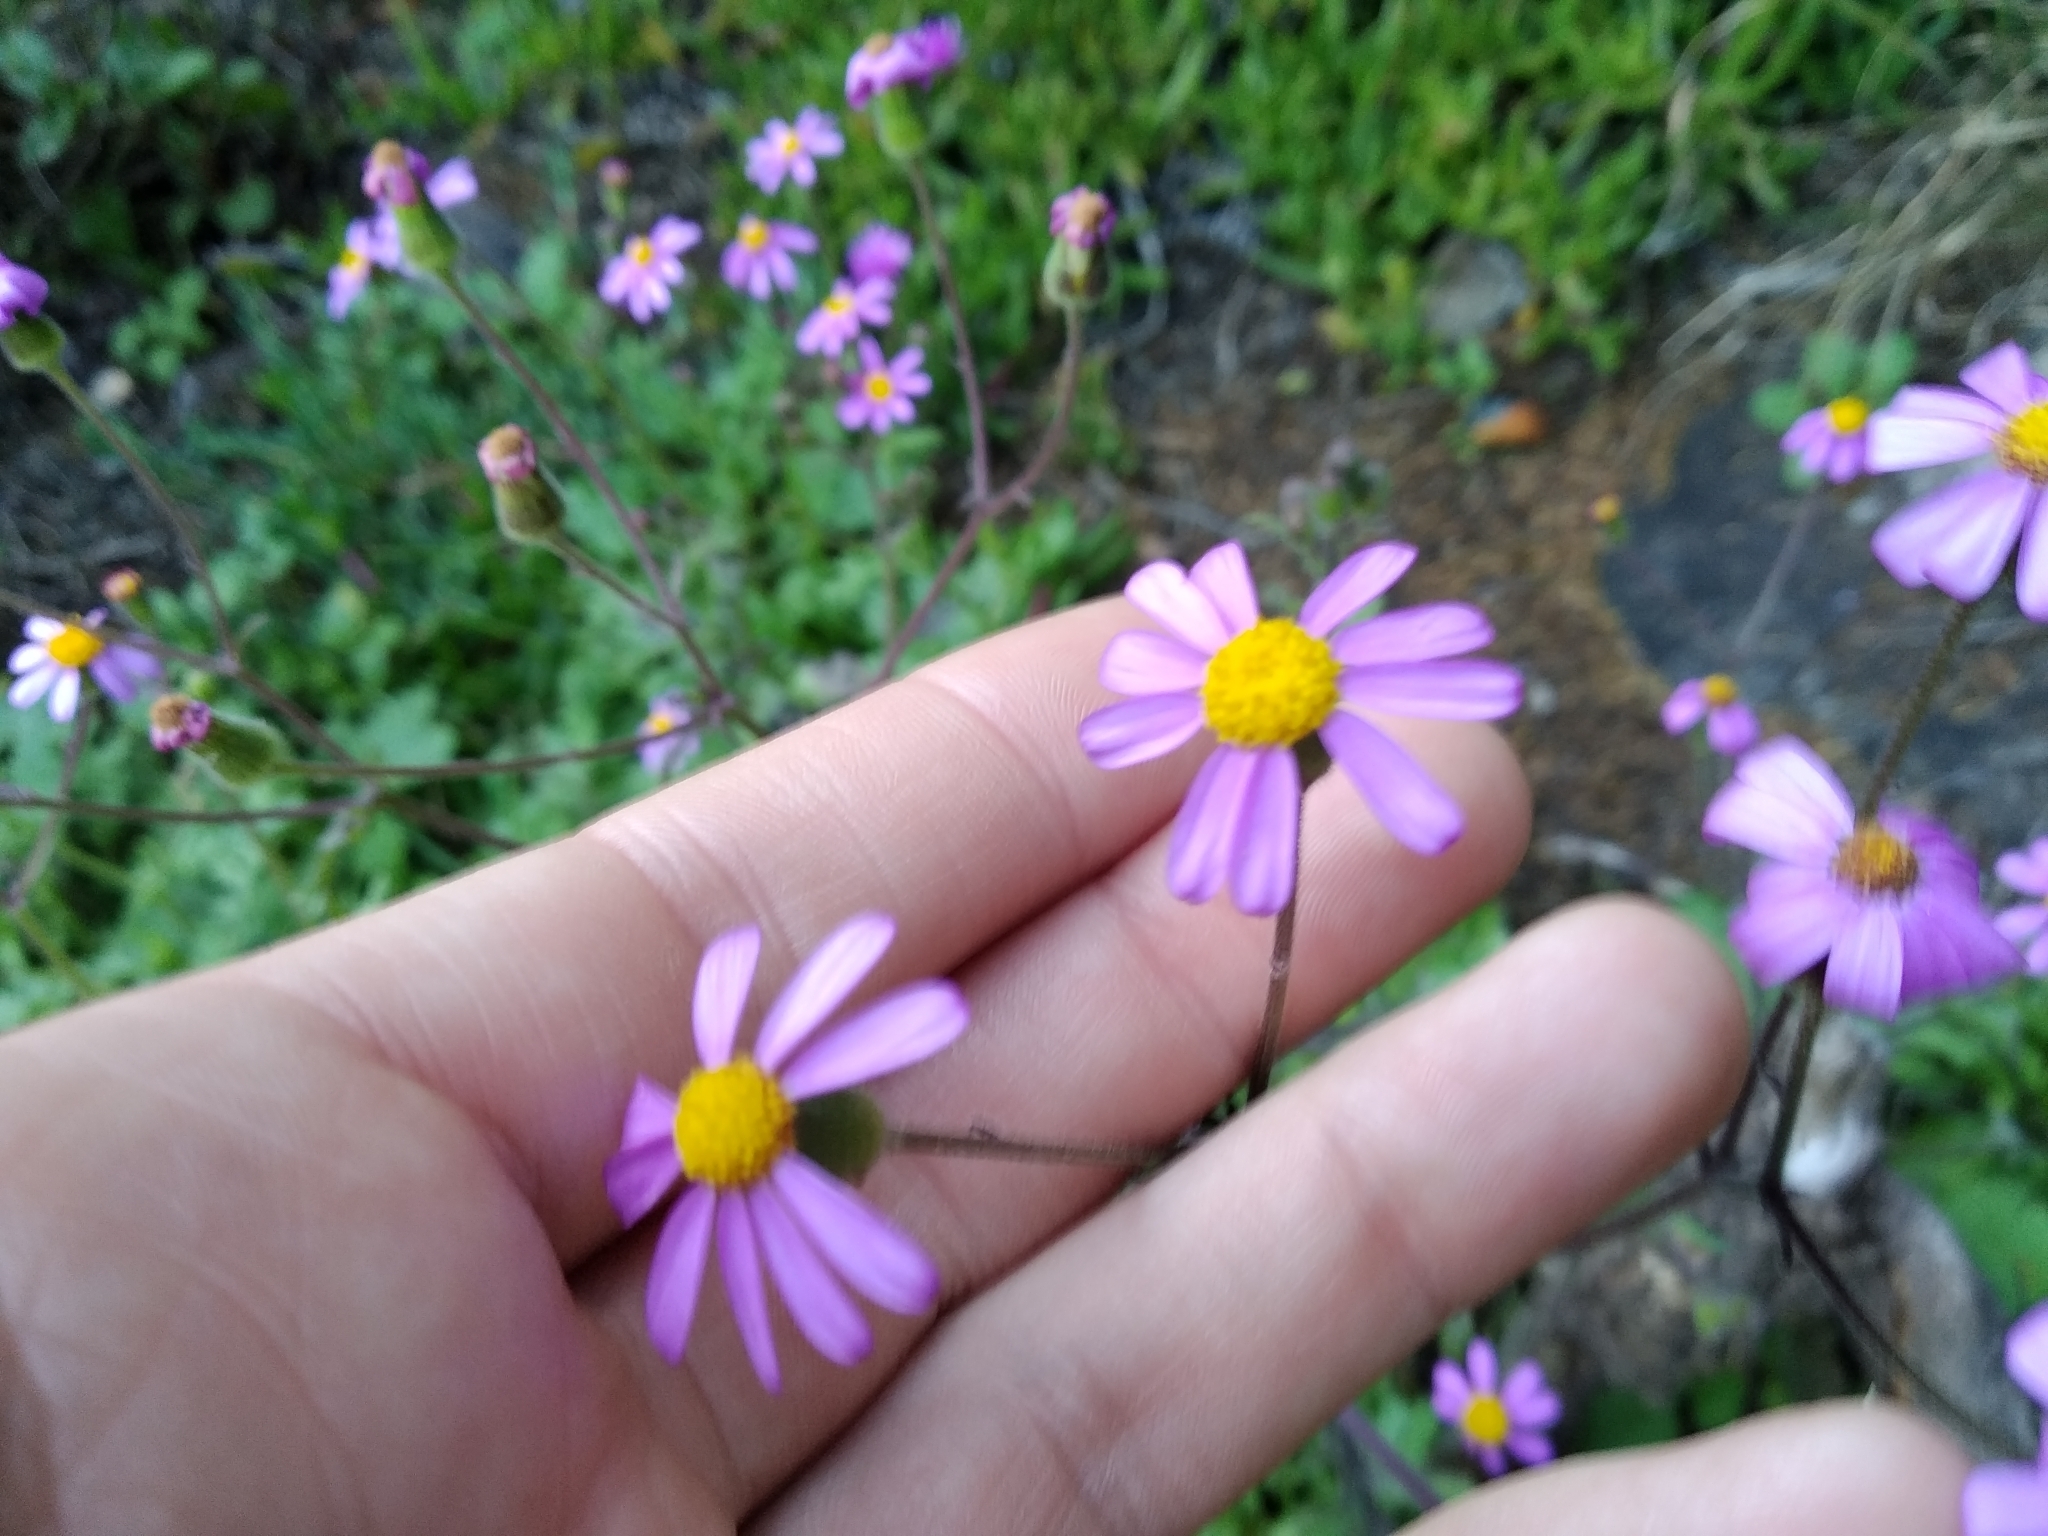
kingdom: Plantae
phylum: Tracheophyta
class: Magnoliopsida
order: Asterales
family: Asteraceae
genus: Senecio
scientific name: Senecio arenarius
